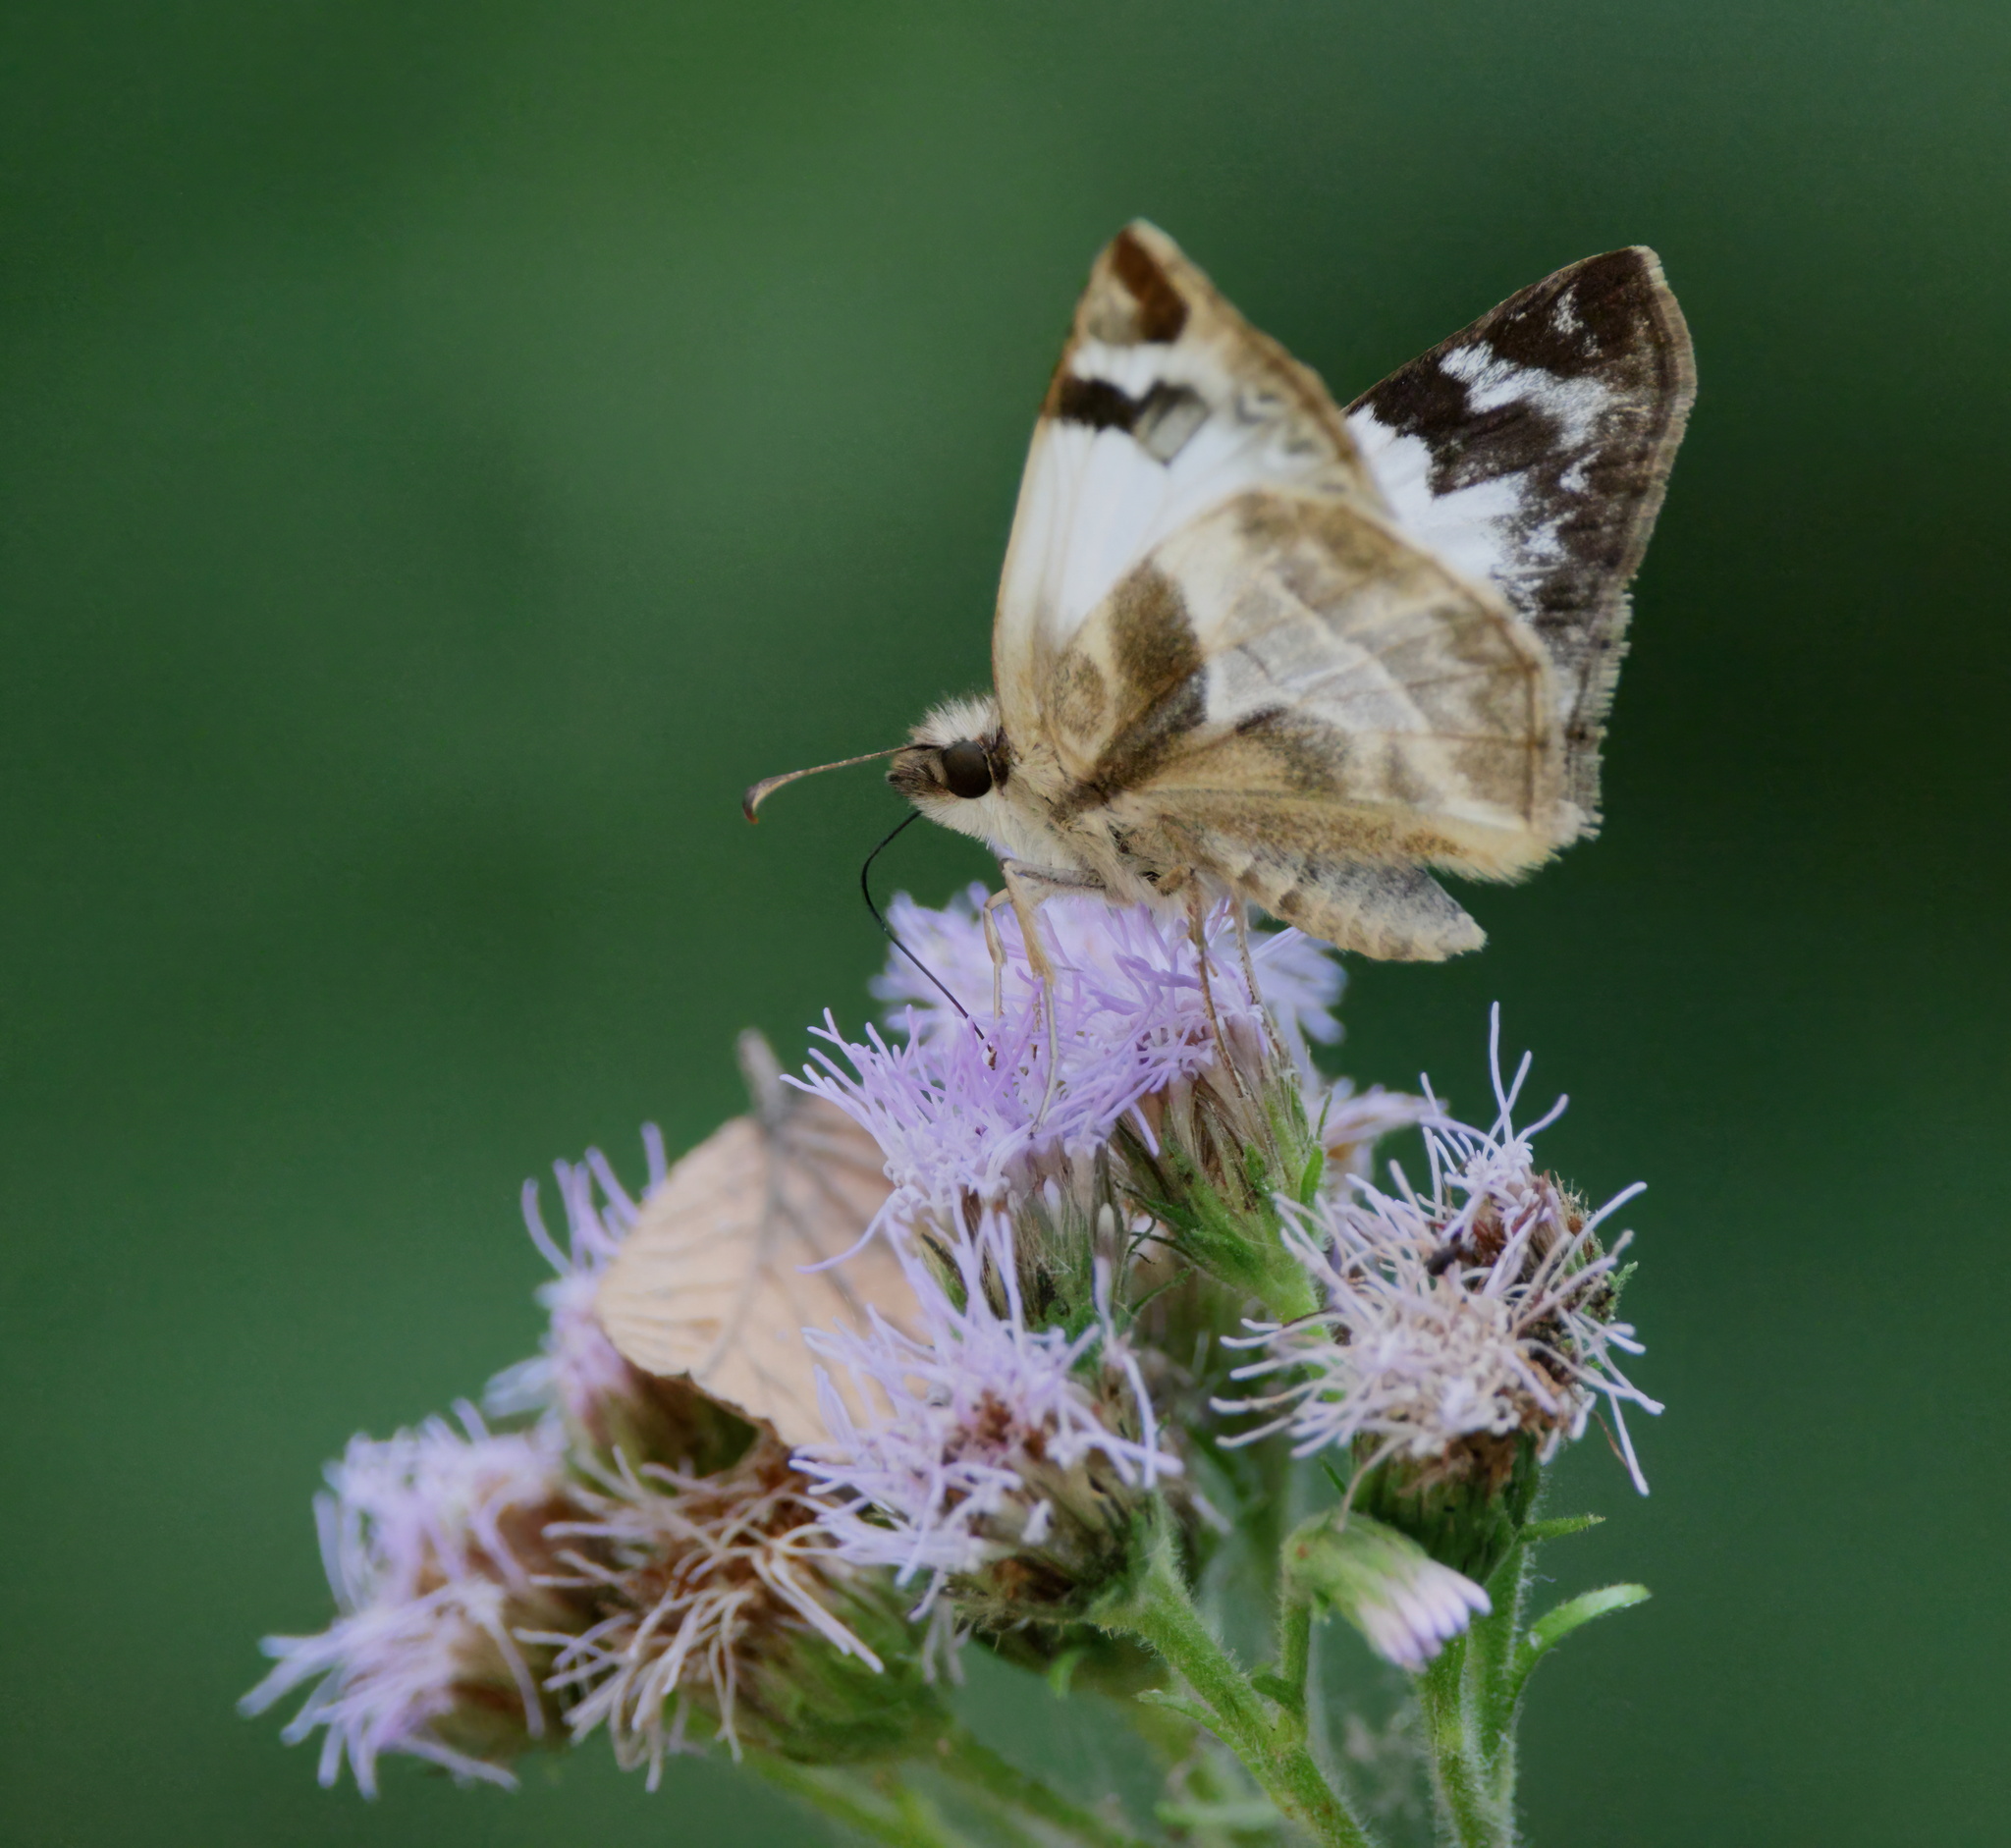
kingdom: Animalia
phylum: Arthropoda
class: Insecta
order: Lepidoptera
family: Hesperiidae
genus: Heliopetes
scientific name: Heliopetes laviana
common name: Laviana white-skipper
